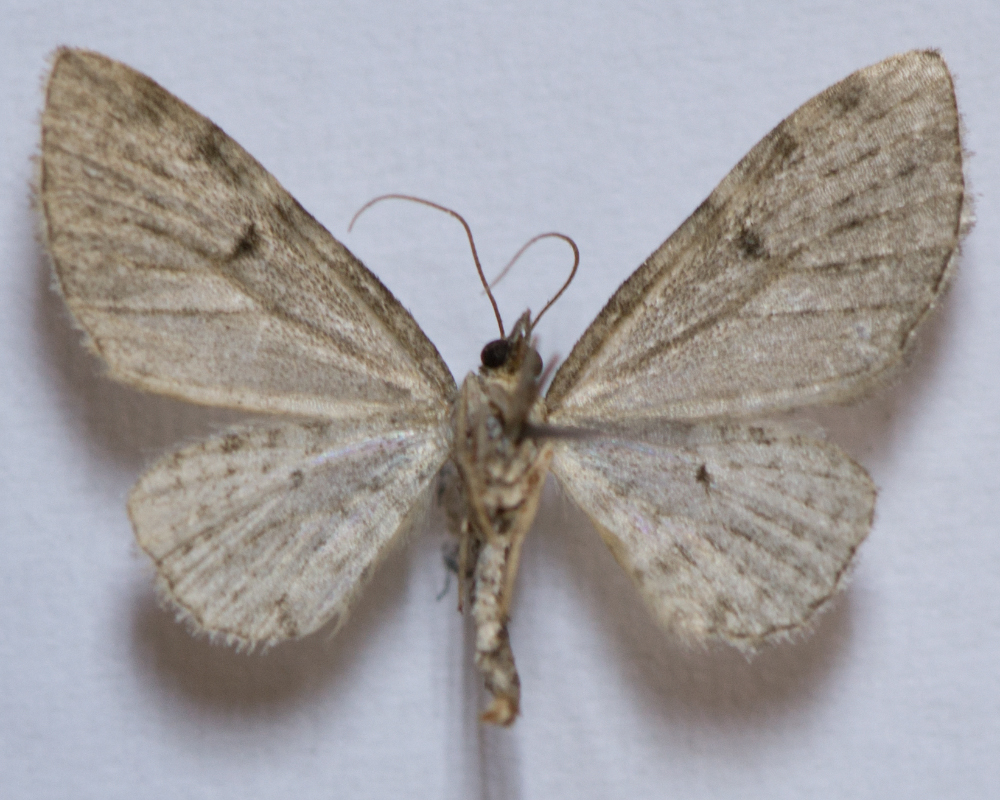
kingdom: Animalia
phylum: Arthropoda
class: Insecta
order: Lepidoptera
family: Geometridae
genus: Eupithecia
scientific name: Eupithecia virgaureata
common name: Golden-rod pug
